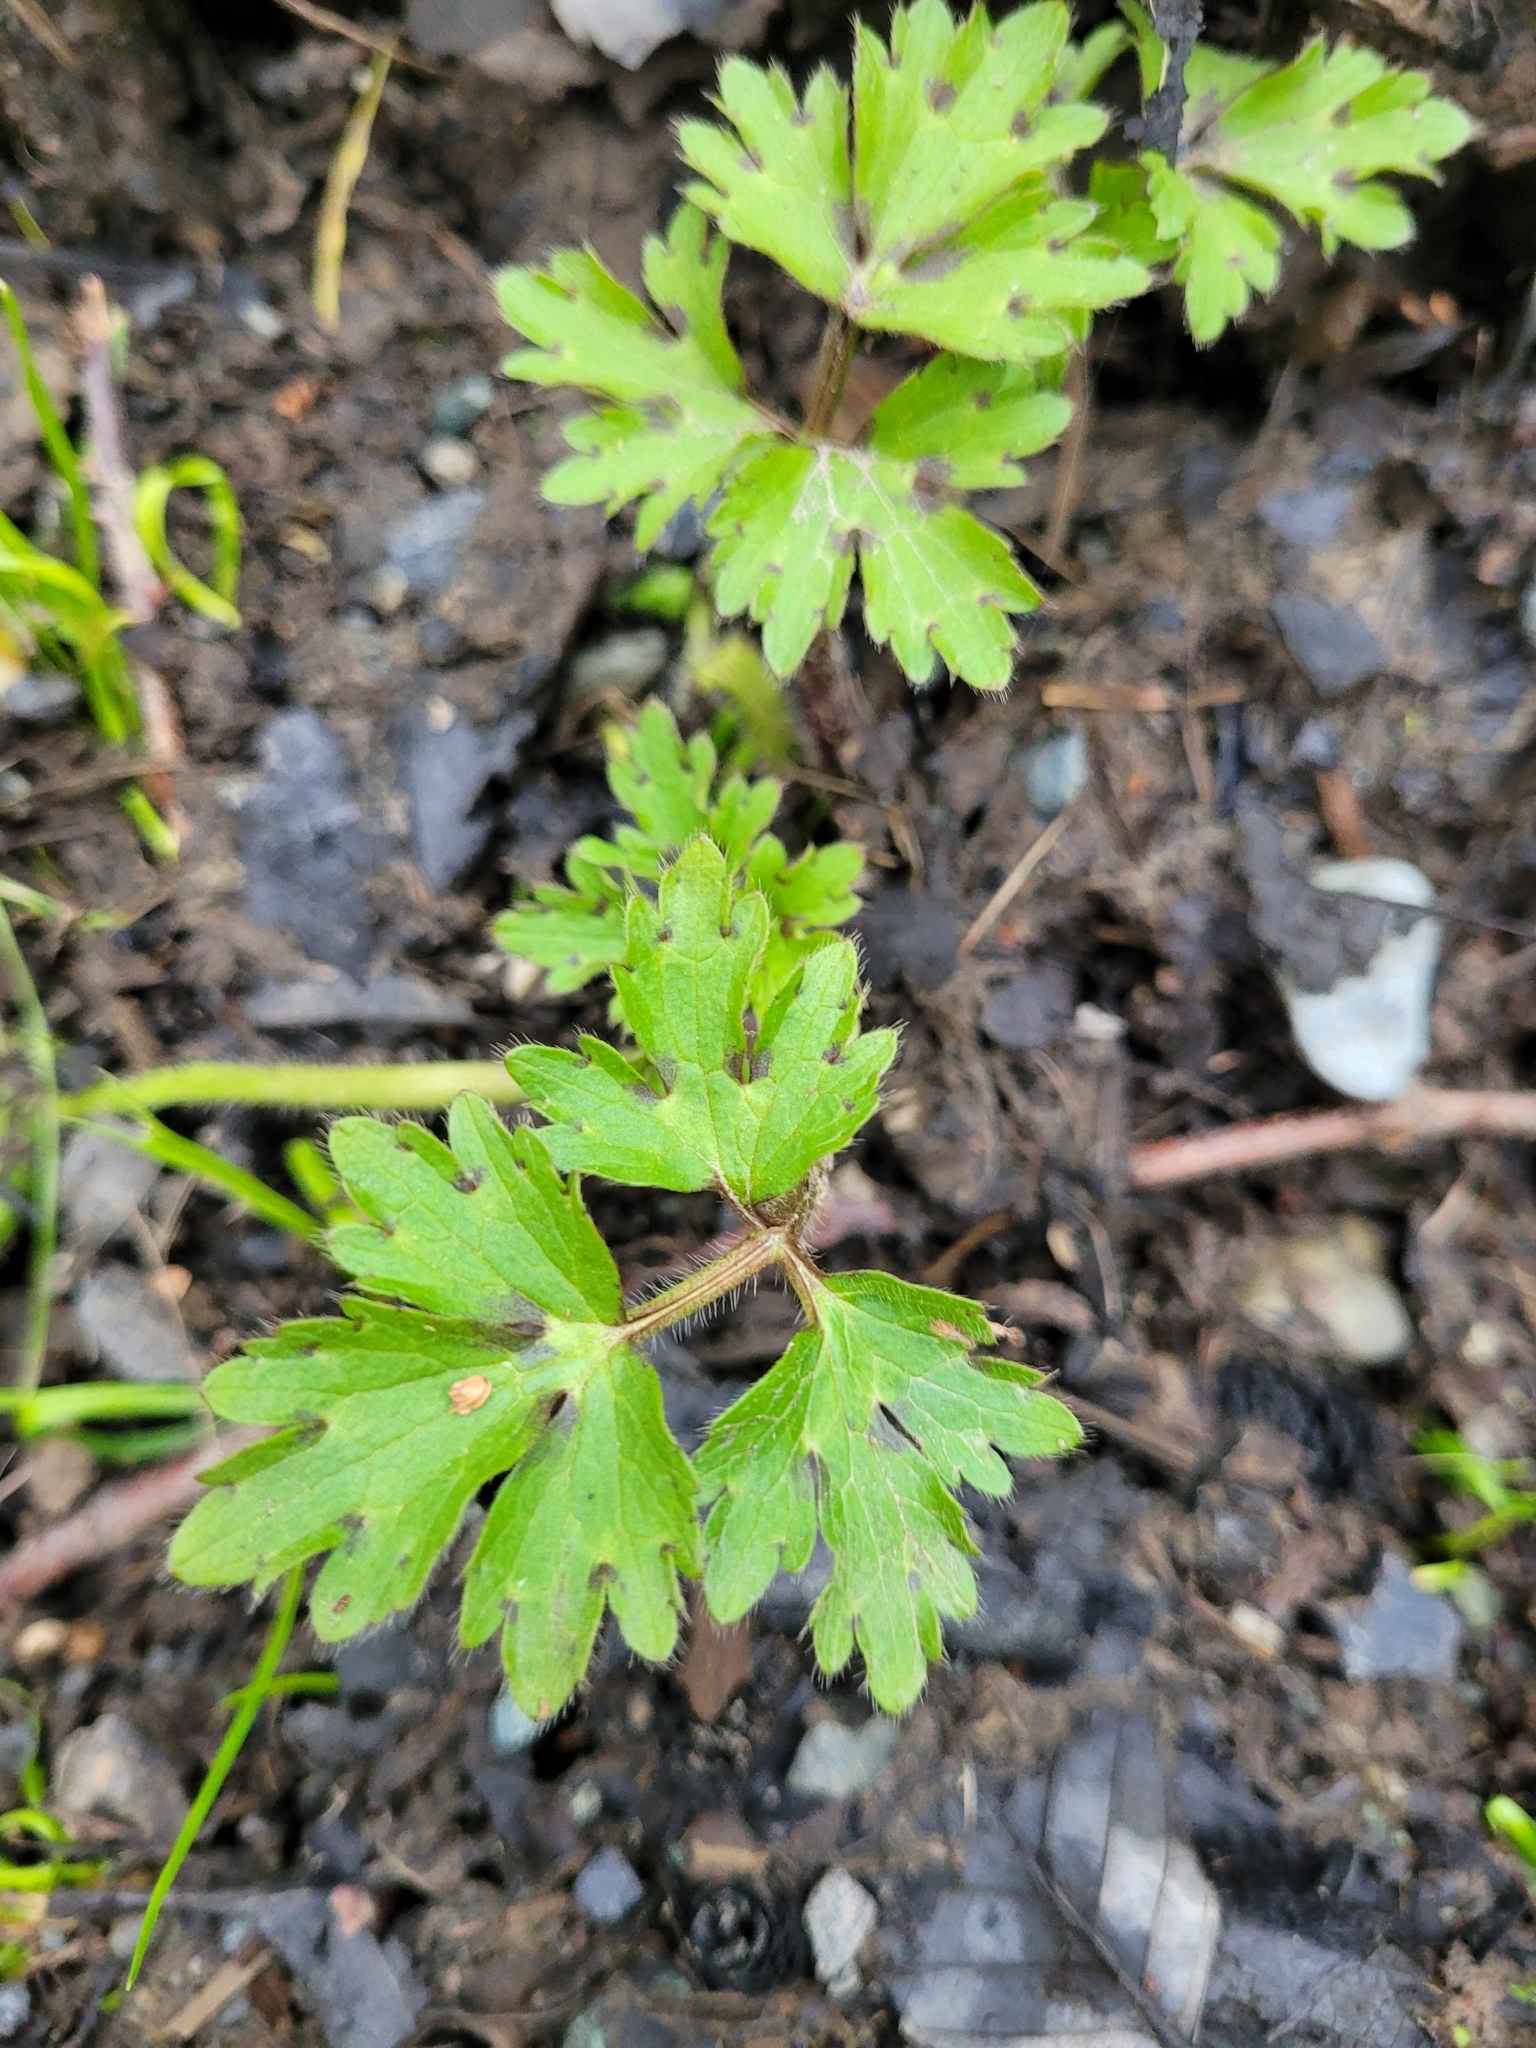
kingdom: Plantae
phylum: Tracheophyta
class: Magnoliopsida
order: Ranunculales
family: Ranunculaceae
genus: Ranunculus
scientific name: Ranunculus repens
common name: Creeping buttercup
